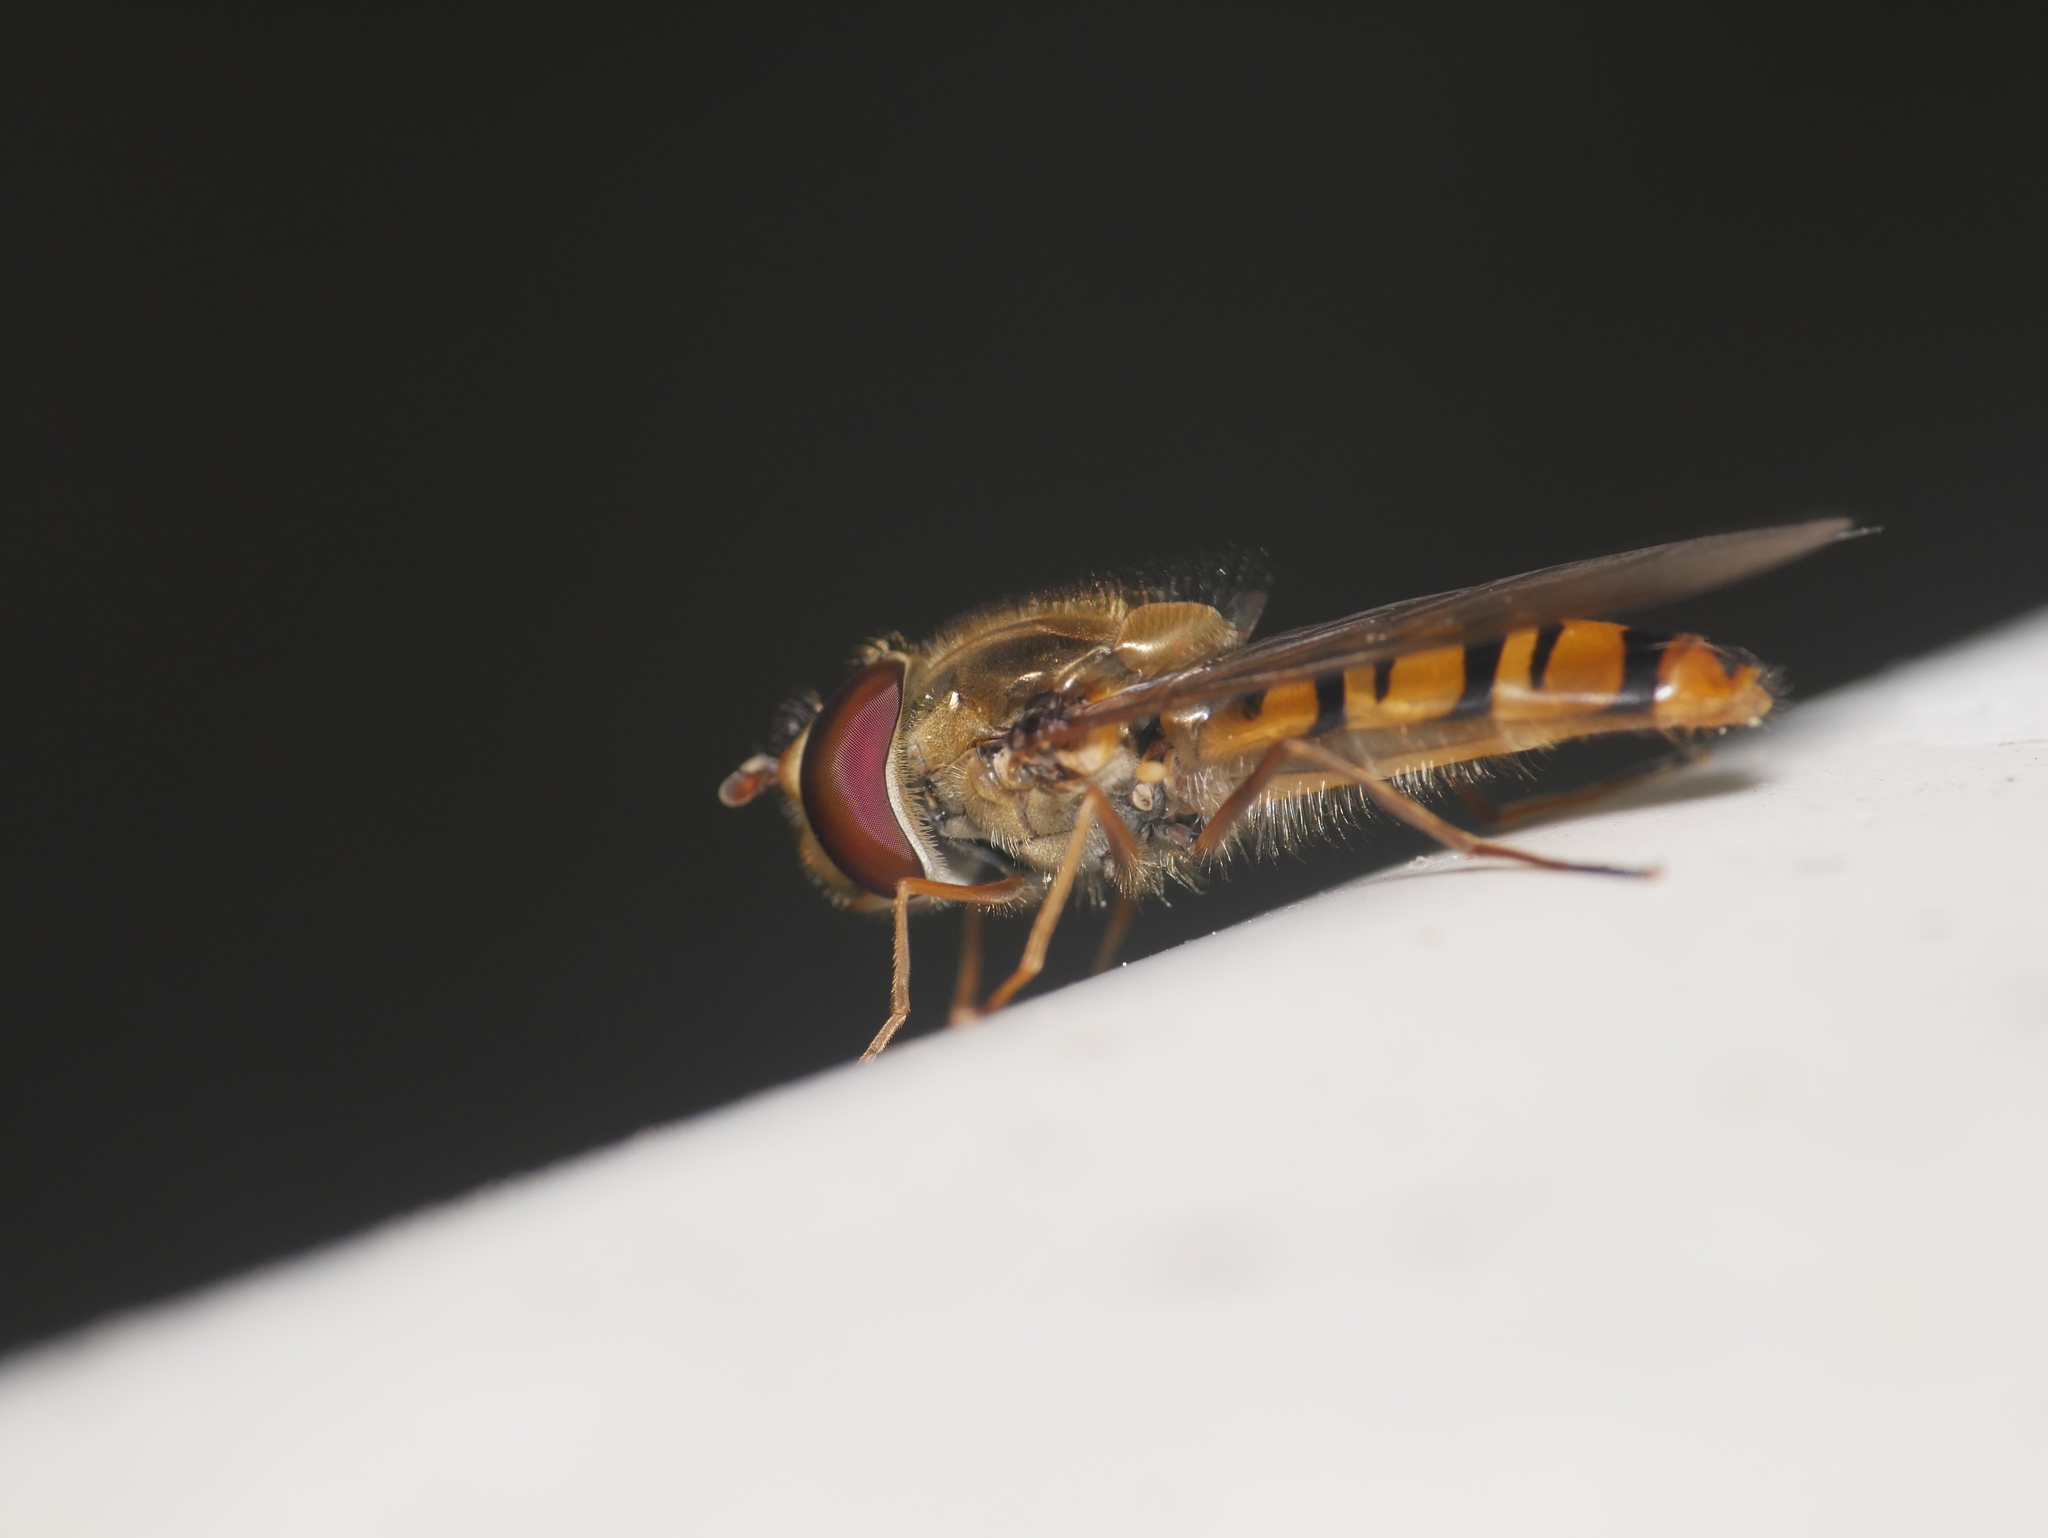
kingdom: Animalia
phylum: Arthropoda
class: Insecta
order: Diptera
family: Syrphidae
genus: Episyrphus
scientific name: Episyrphus balteatus
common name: Marmalade hoverfly
